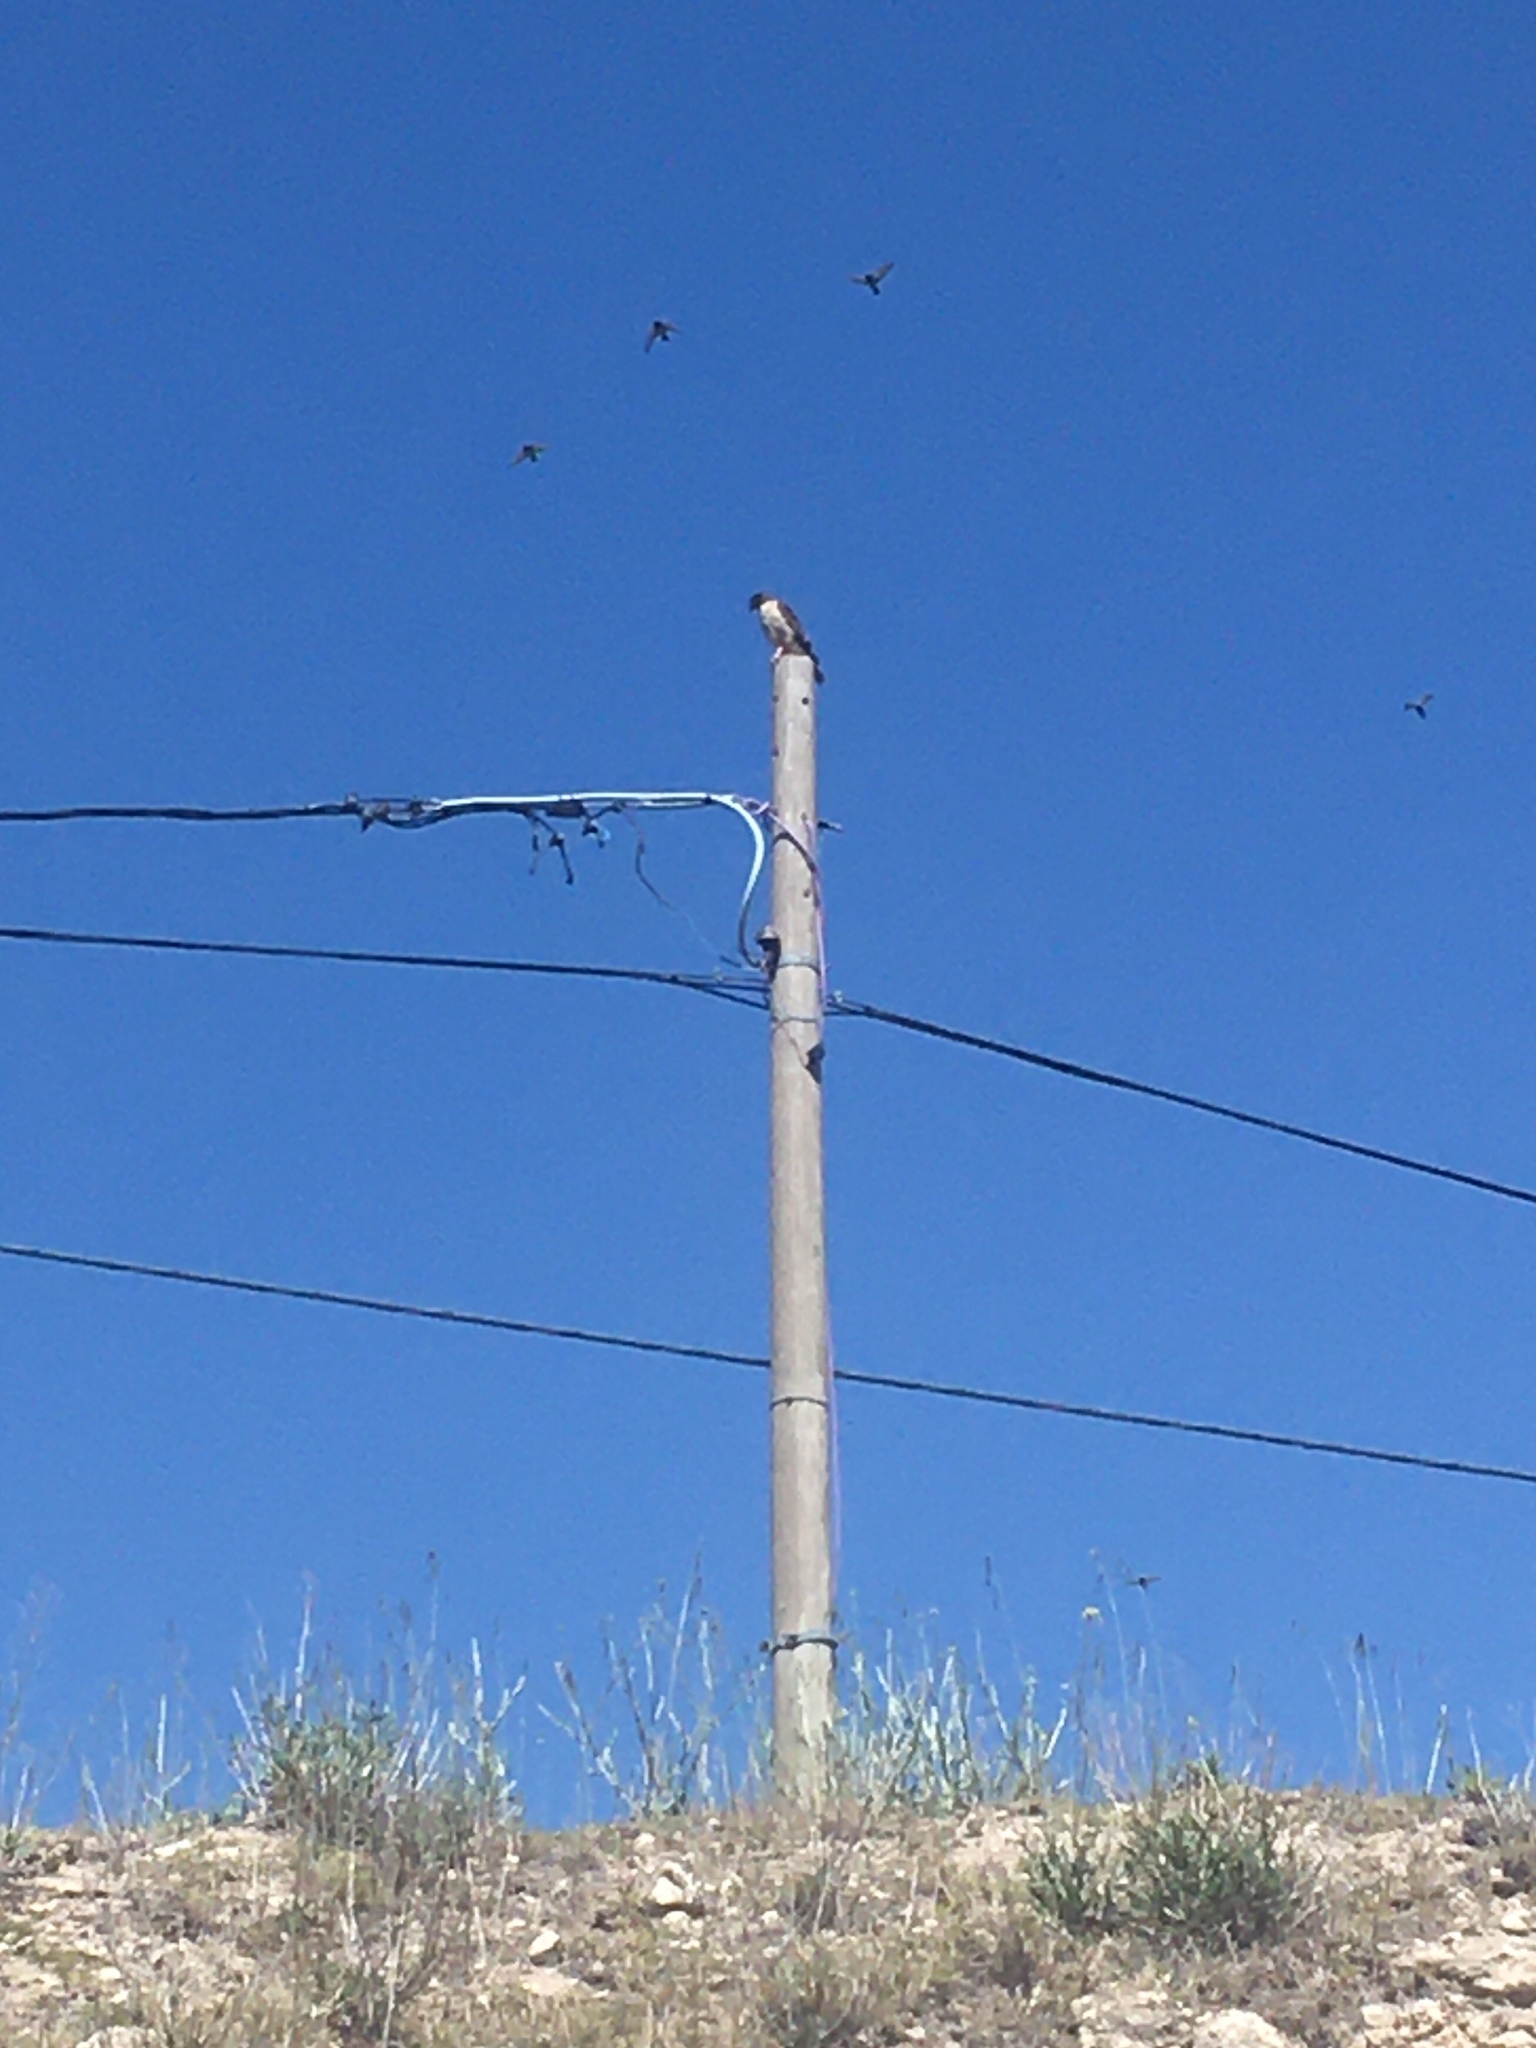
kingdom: Animalia
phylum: Chordata
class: Aves
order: Accipitriformes
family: Accipitridae
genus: Rupornis
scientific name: Rupornis magnirostris
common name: Roadside hawk
